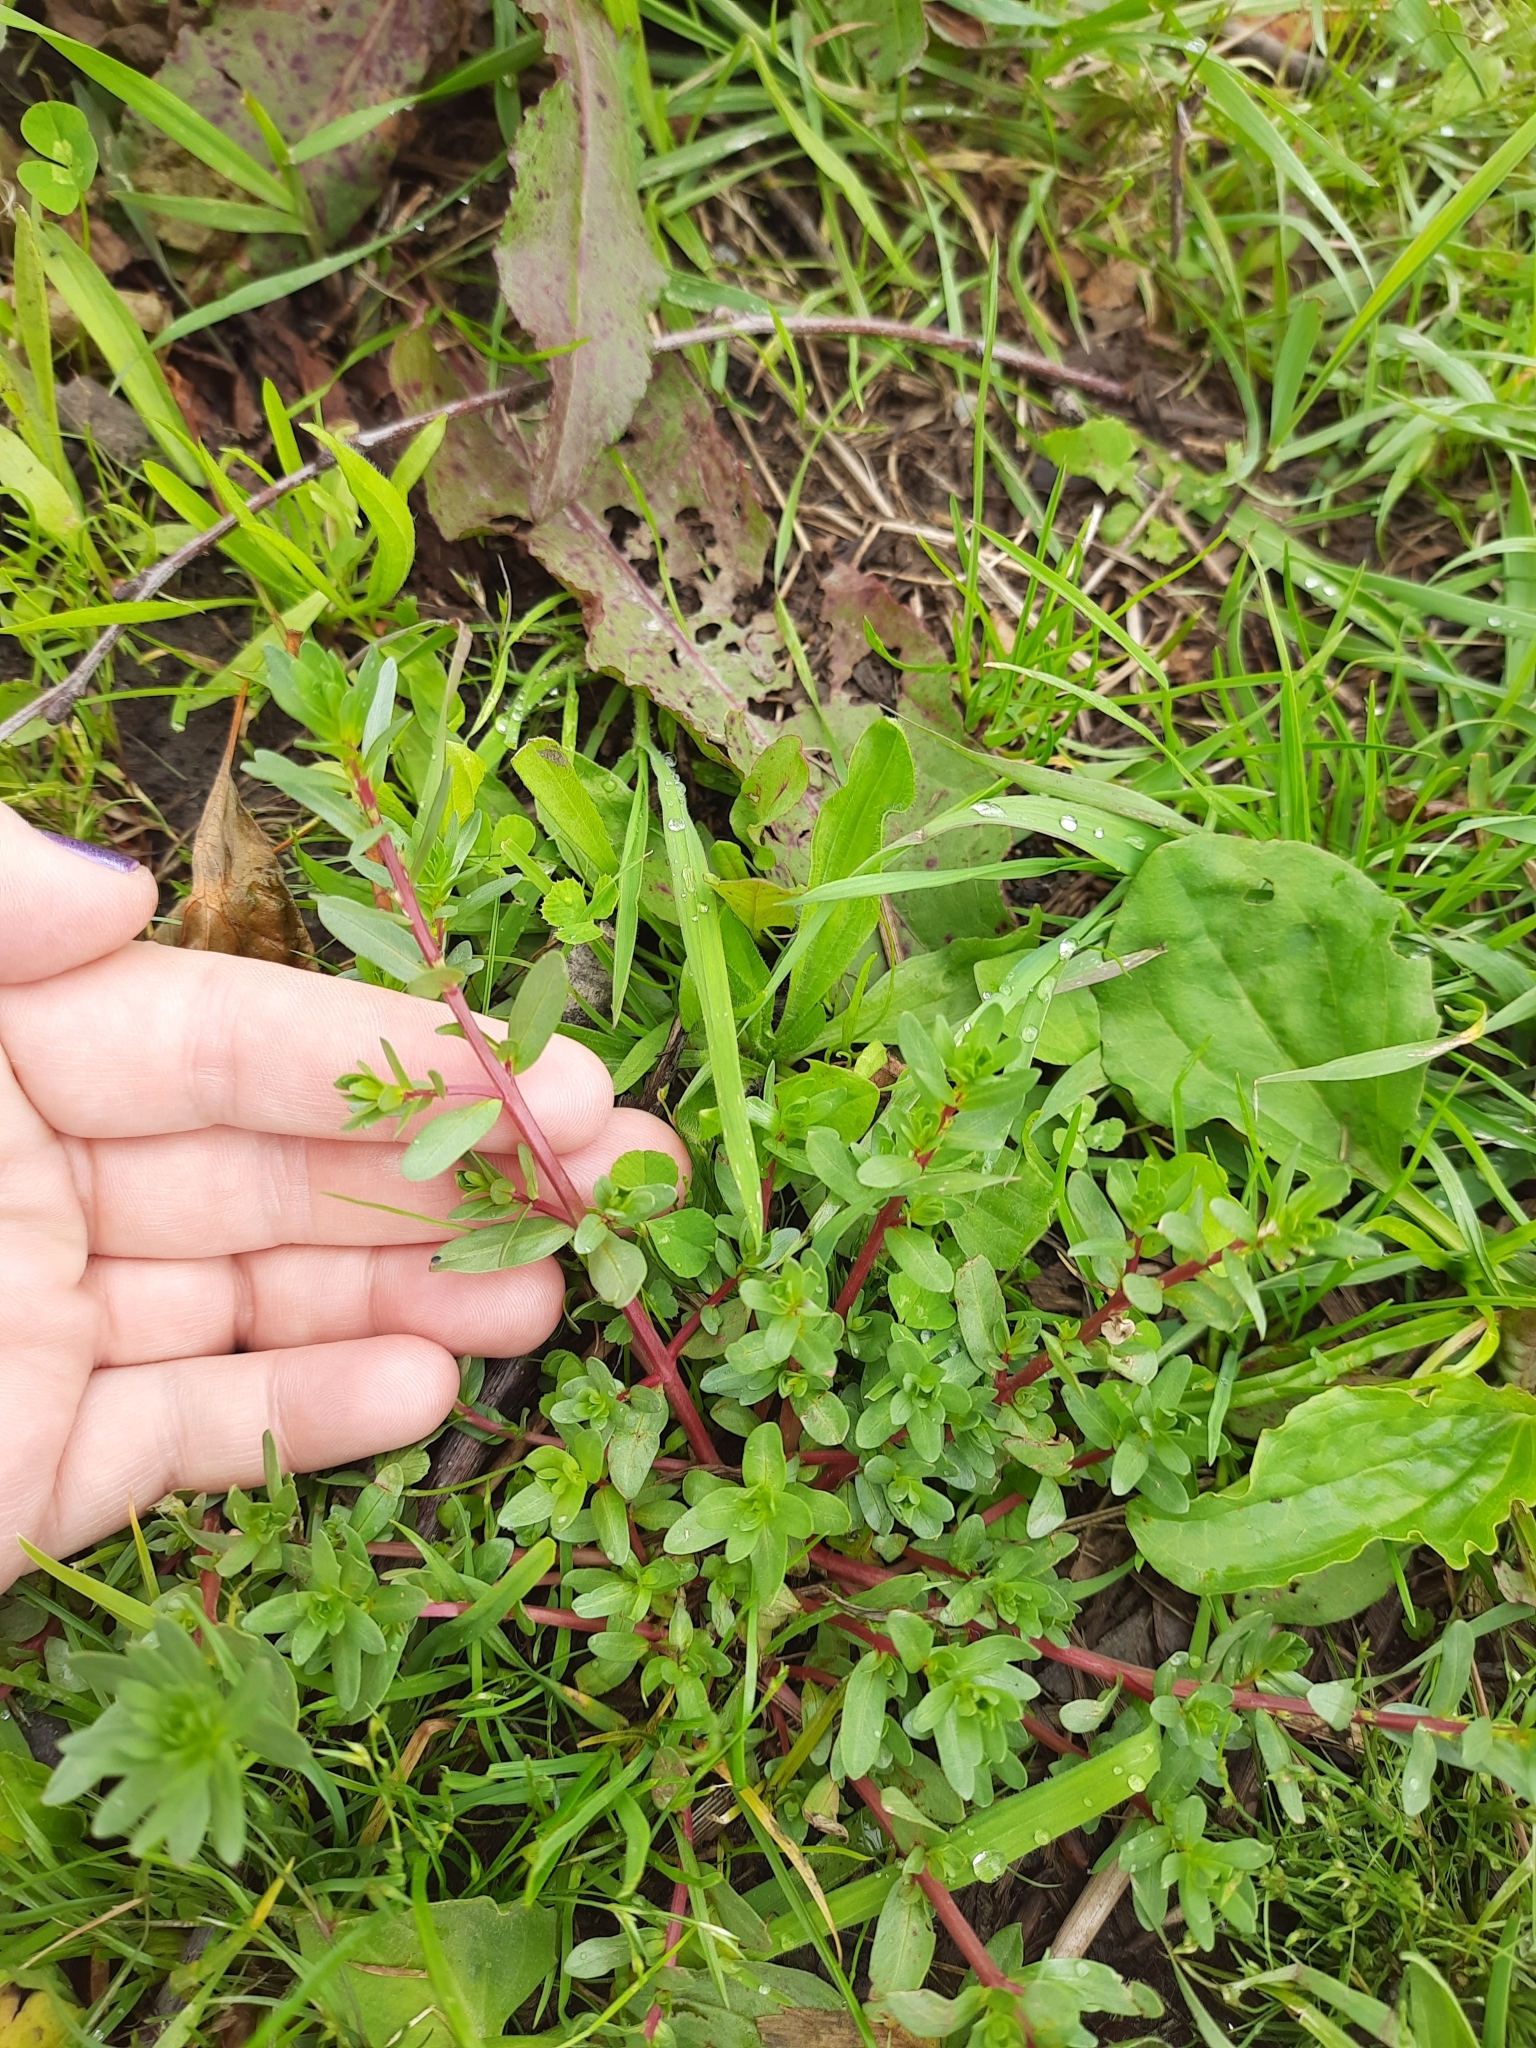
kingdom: Plantae
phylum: Tracheophyta
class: Magnoliopsida
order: Myrtales
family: Lythraceae
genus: Lythrum
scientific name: Lythrum hyssopifolia
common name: Grass-poly
